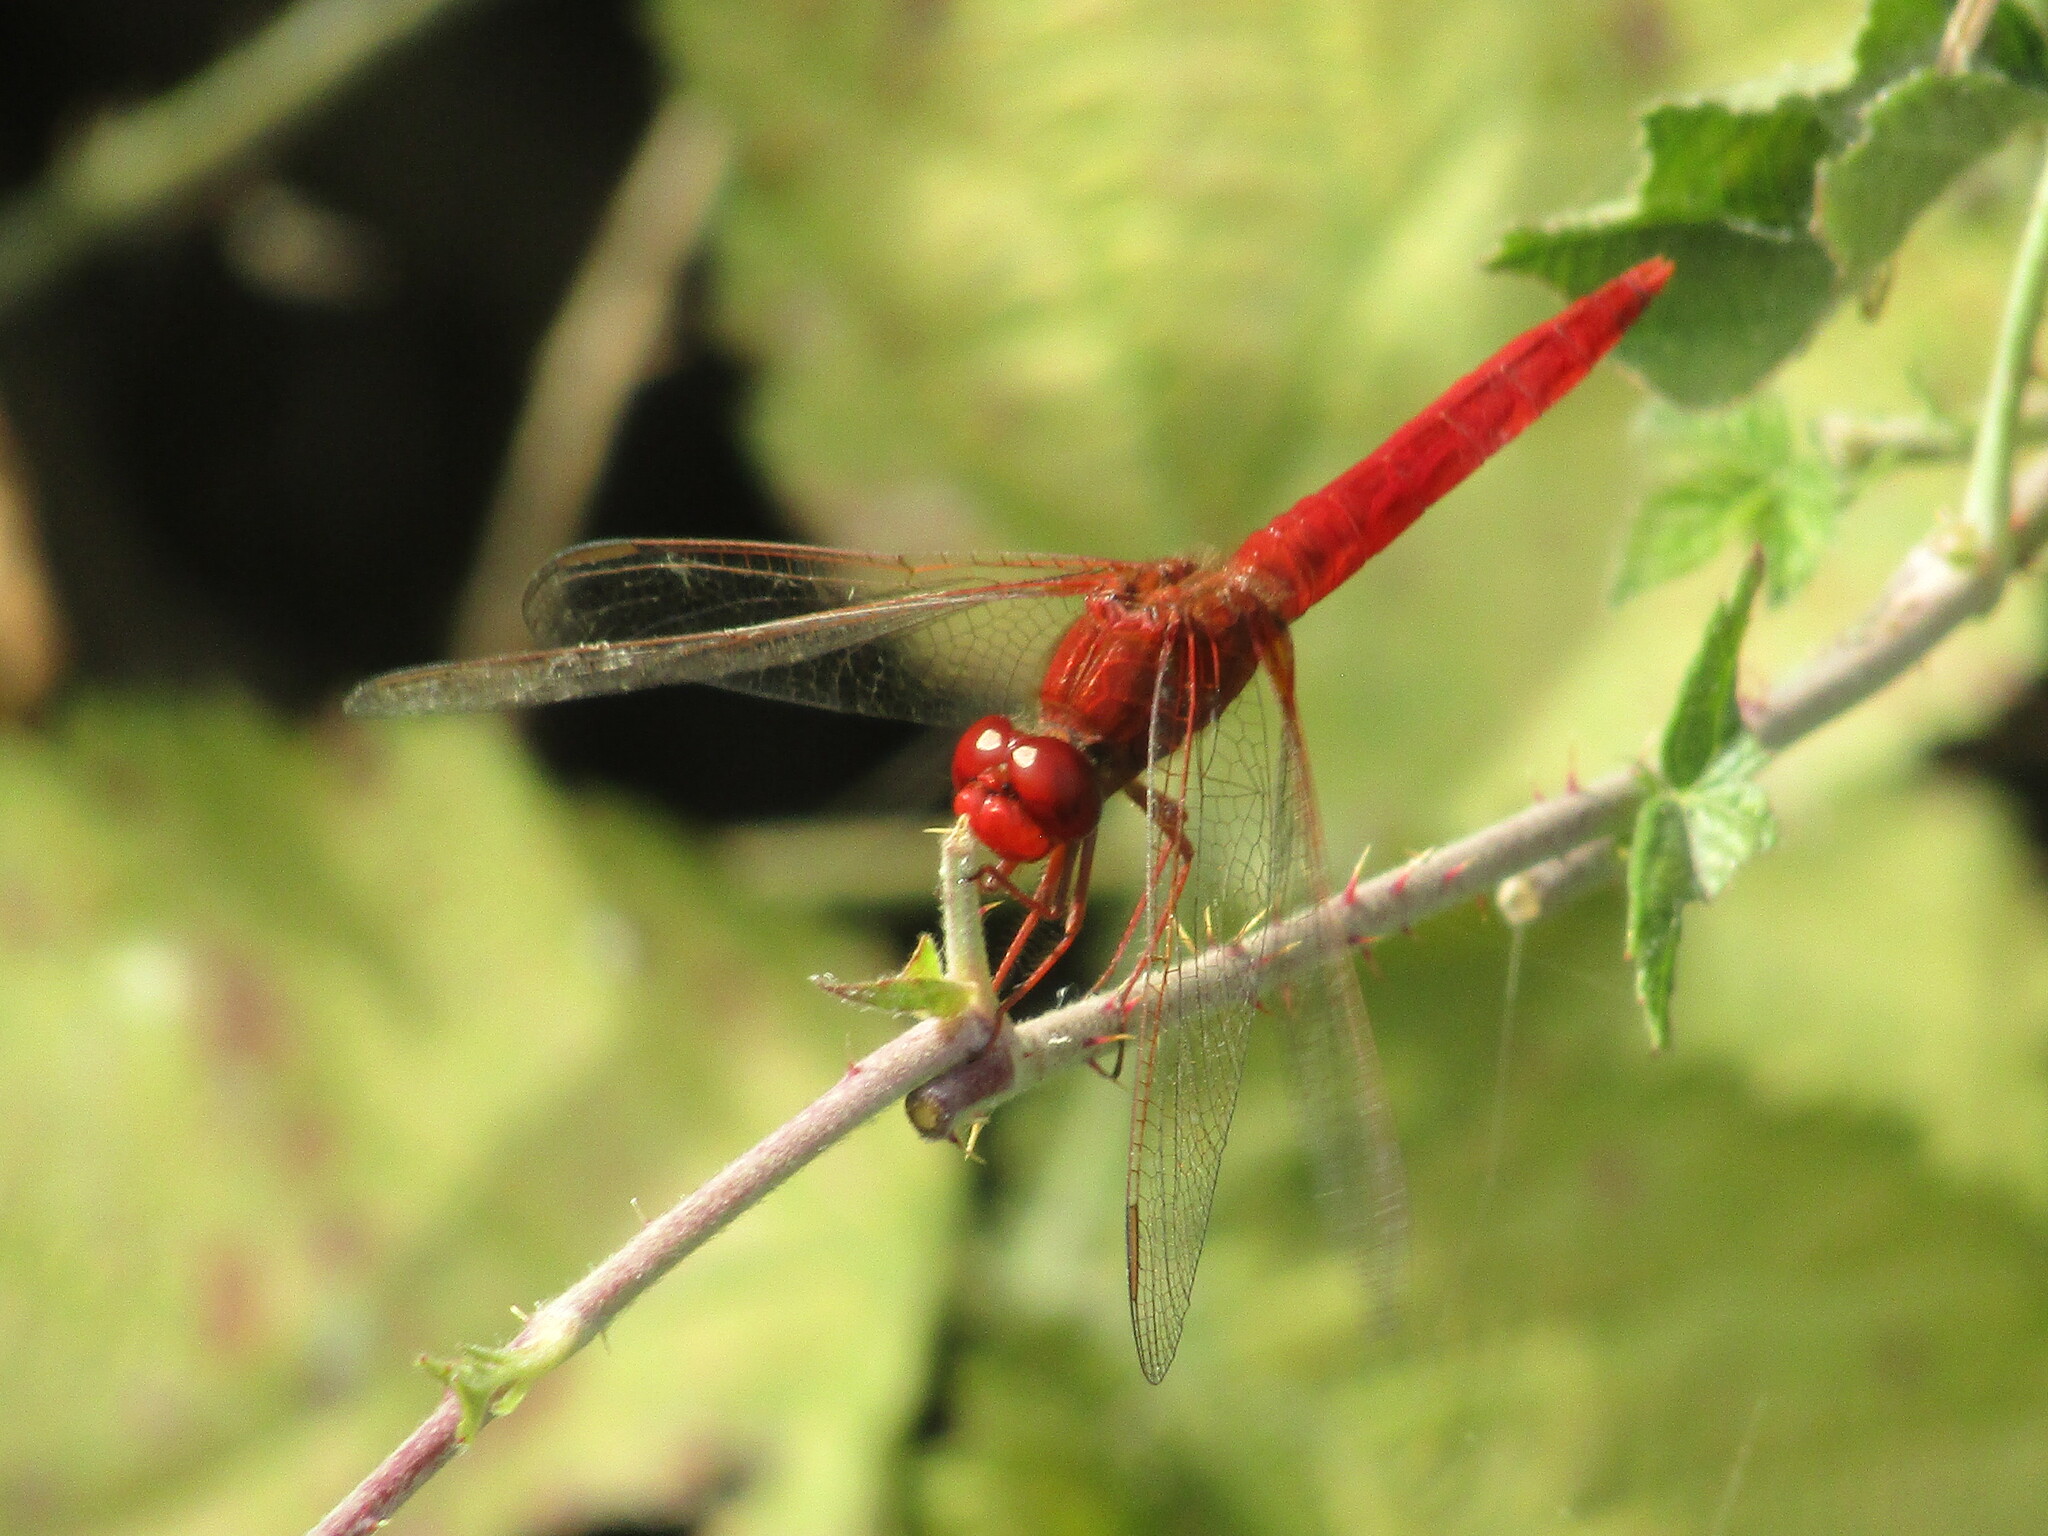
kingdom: Animalia
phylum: Arthropoda
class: Insecta
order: Odonata
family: Libellulidae
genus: Crocothemis
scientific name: Crocothemis erythraea
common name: Scarlet dragonfly
